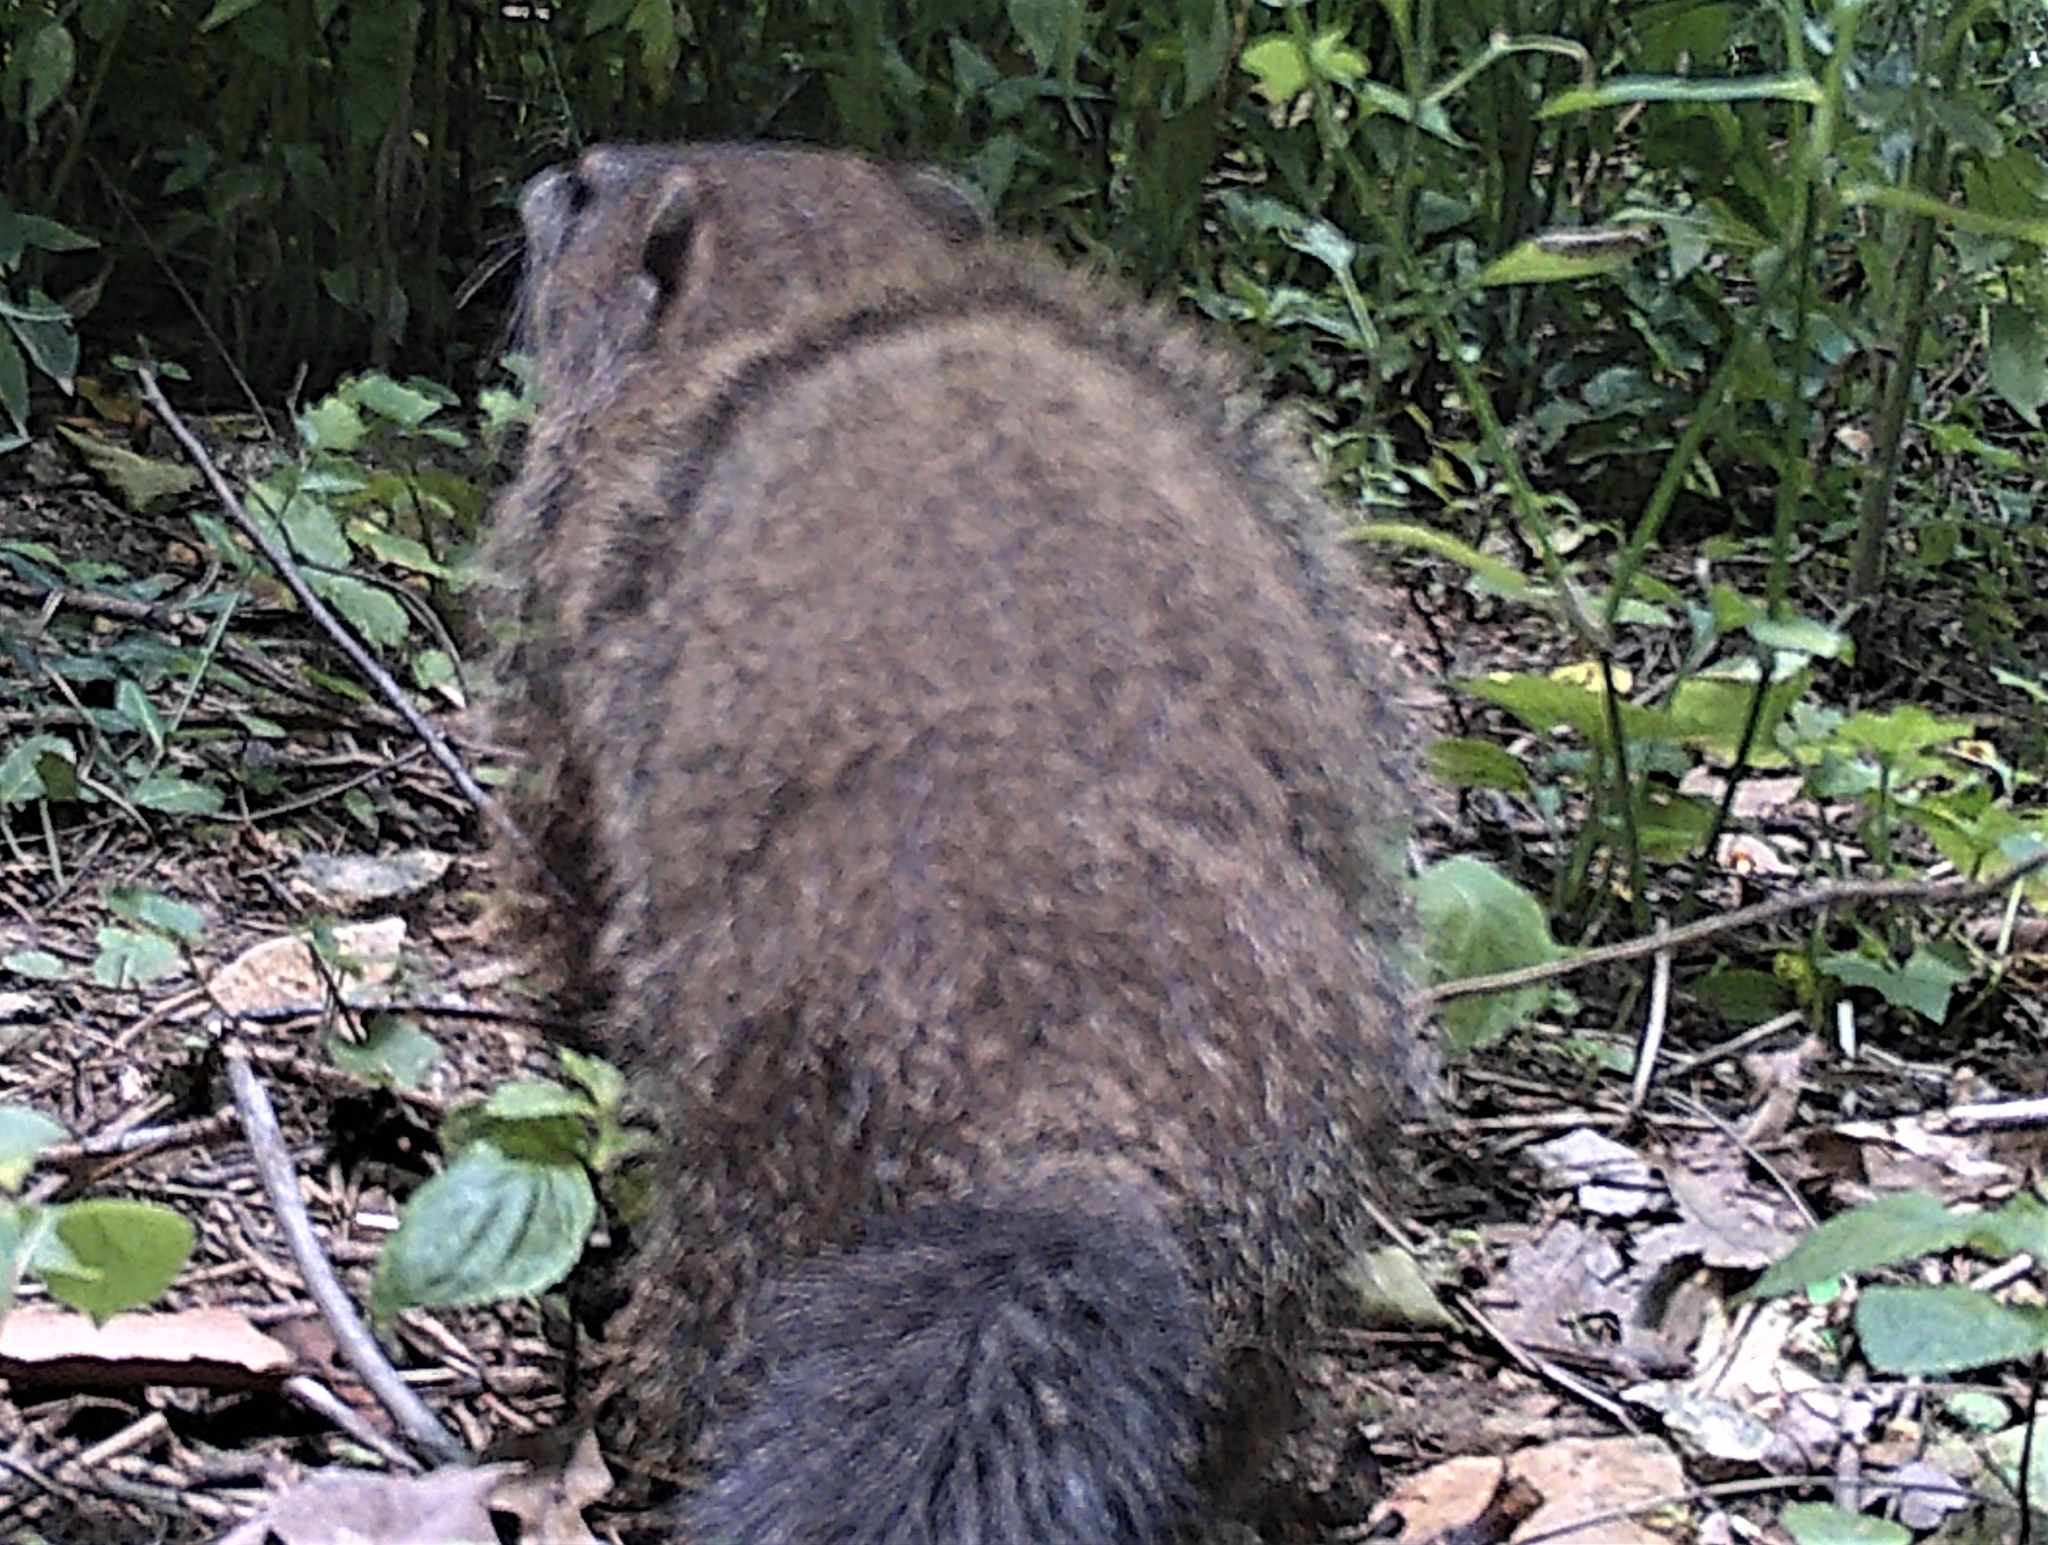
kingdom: Animalia
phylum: Chordata
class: Mammalia
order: Rodentia
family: Sciuridae
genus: Marmota
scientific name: Marmota monax
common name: Groundhog
